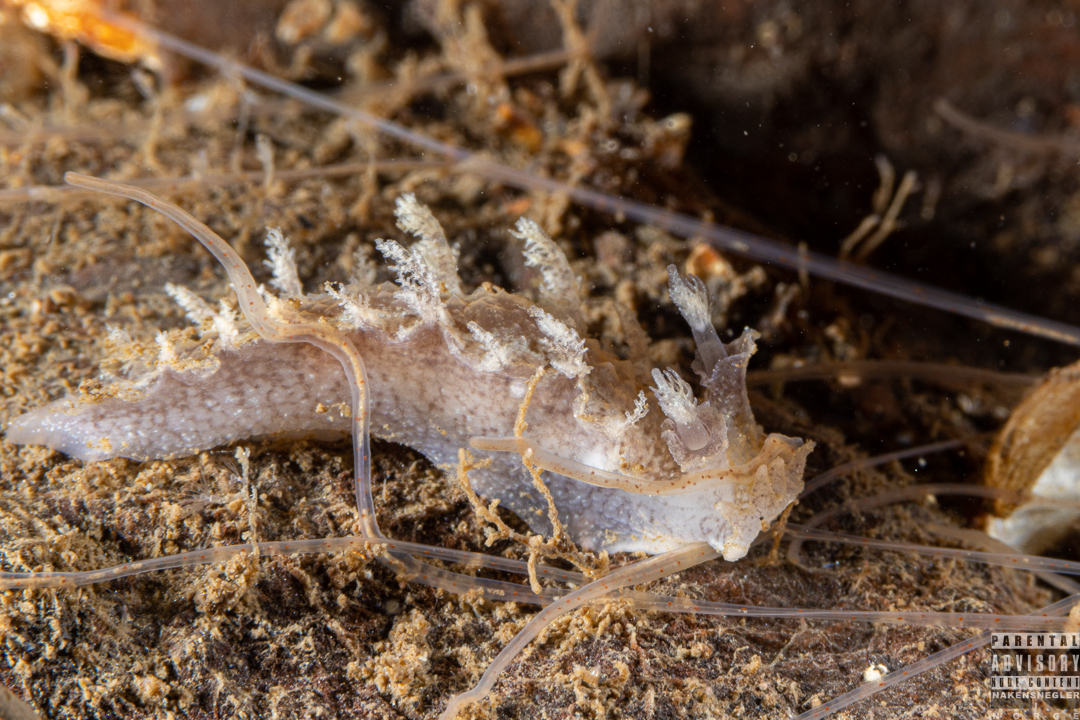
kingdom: Animalia
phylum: Mollusca
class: Gastropoda
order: Nudibranchia
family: Tritoniidae
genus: Duvaucelia
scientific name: Duvaucelia plebeia
